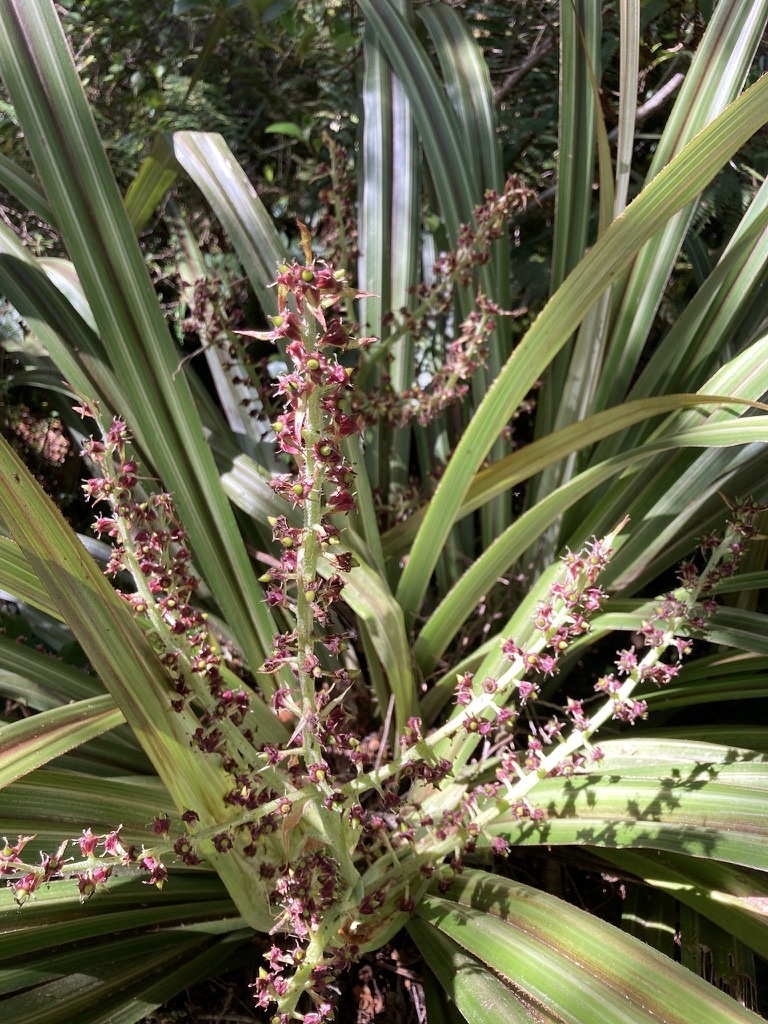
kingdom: Plantae
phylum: Tracheophyta
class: Liliopsida
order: Asparagales
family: Asteliaceae
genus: Astelia
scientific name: Astelia fragrans
